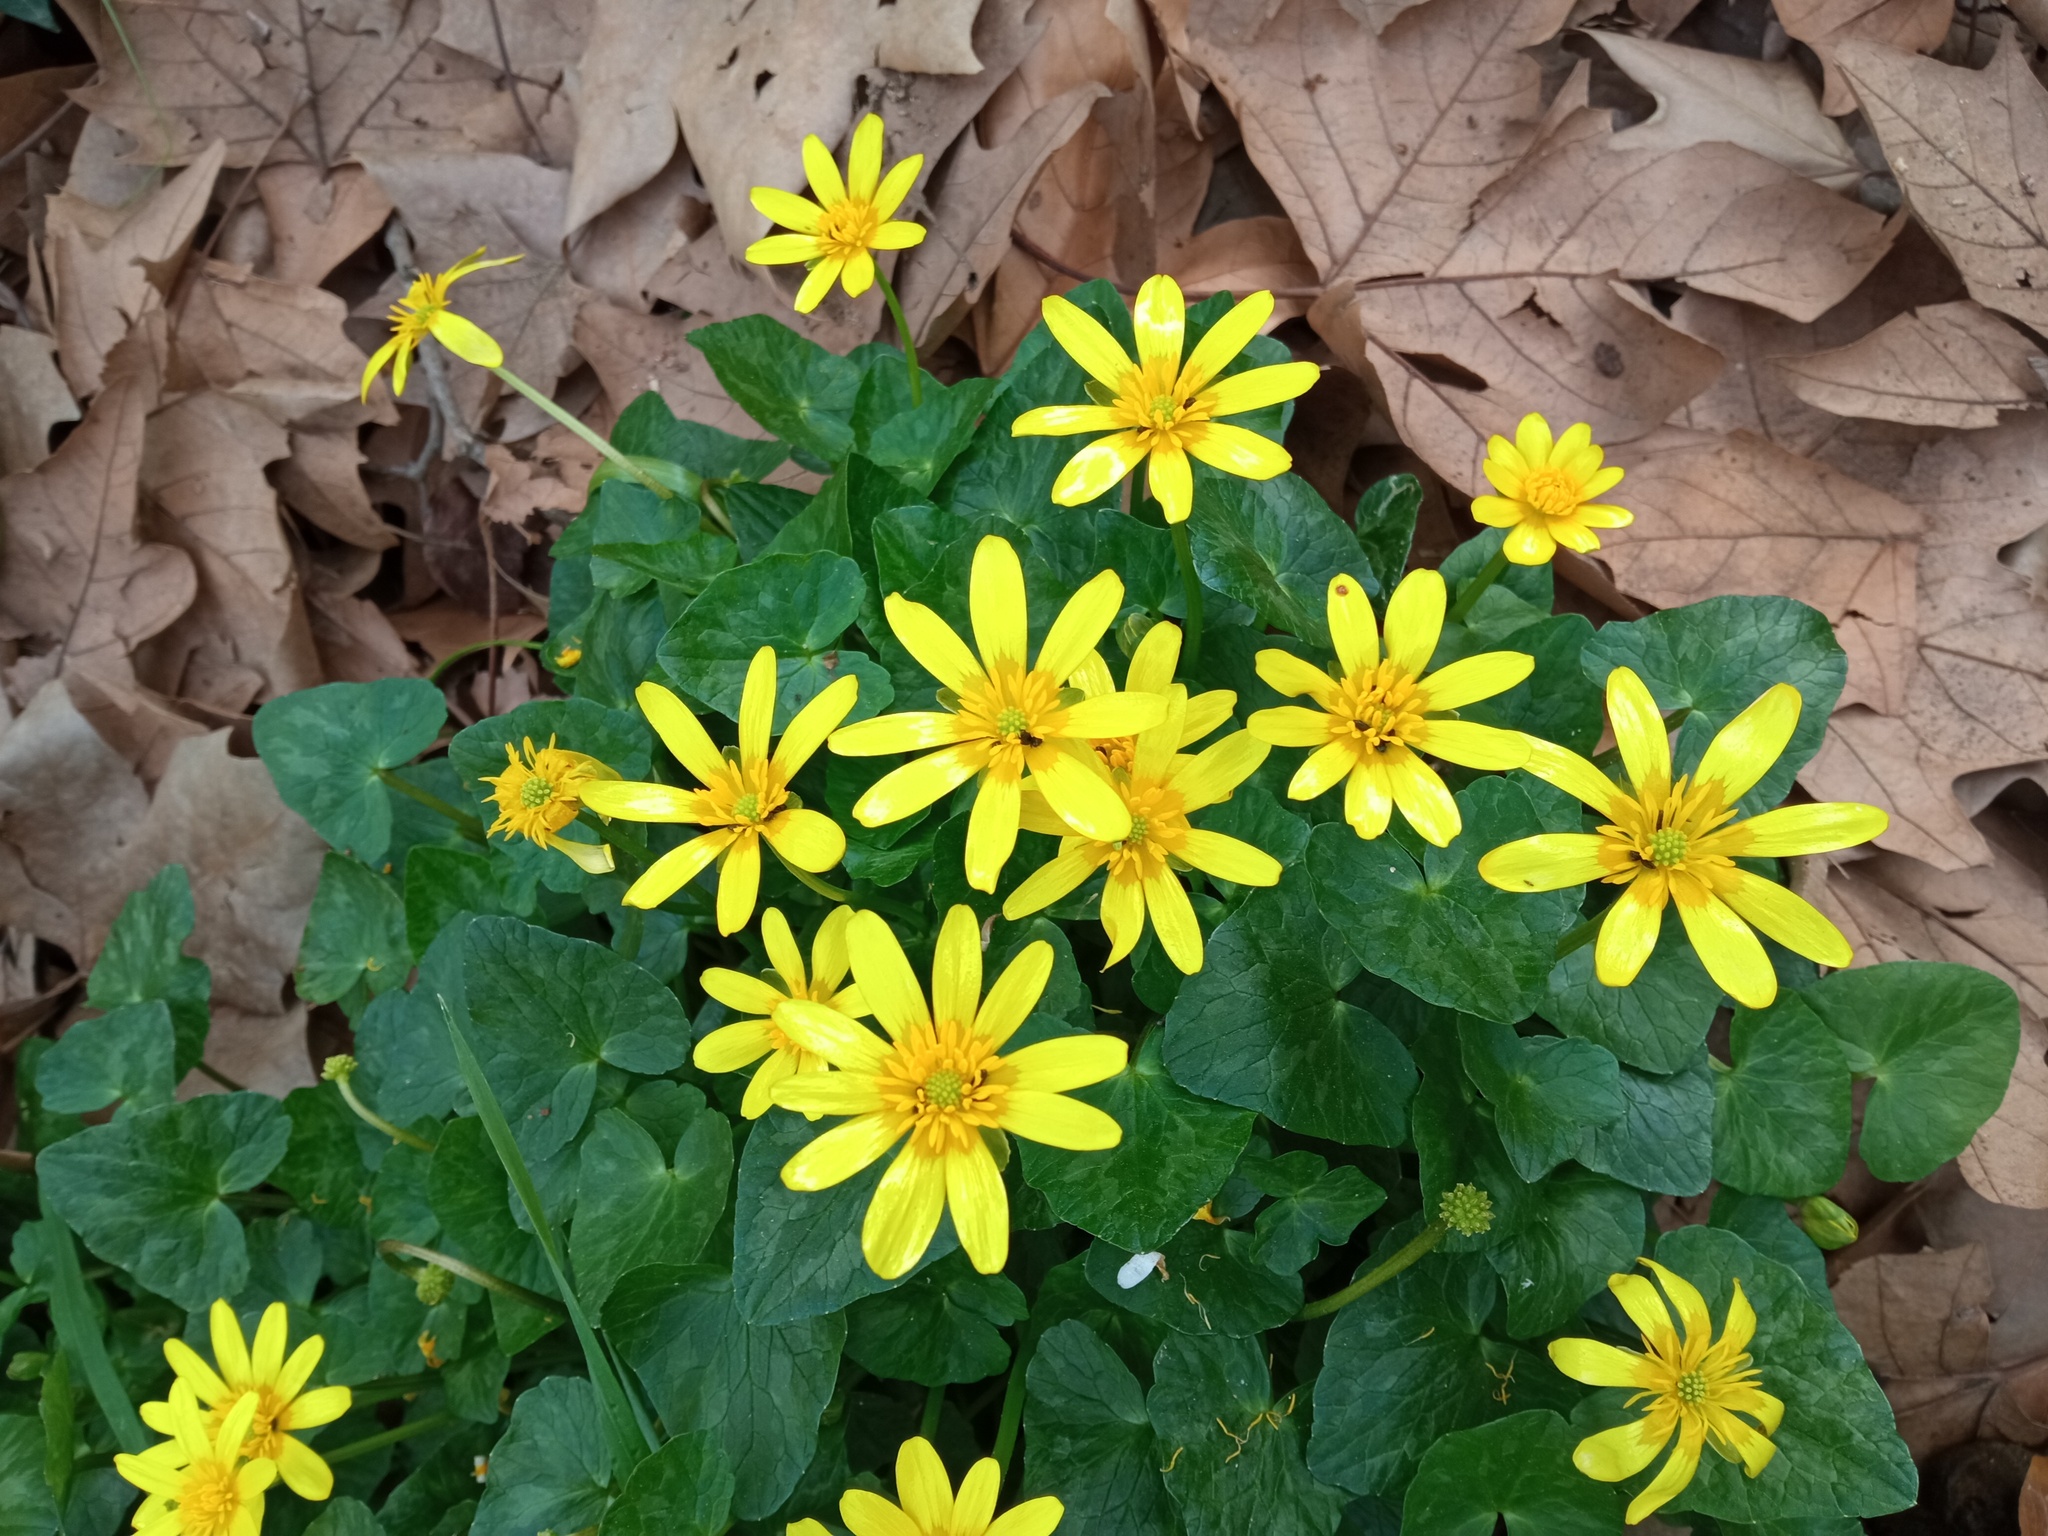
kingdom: Plantae
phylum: Tracheophyta
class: Magnoliopsida
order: Ranunculales
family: Ranunculaceae
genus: Ficaria
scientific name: Ficaria verna
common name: Lesser celandine
